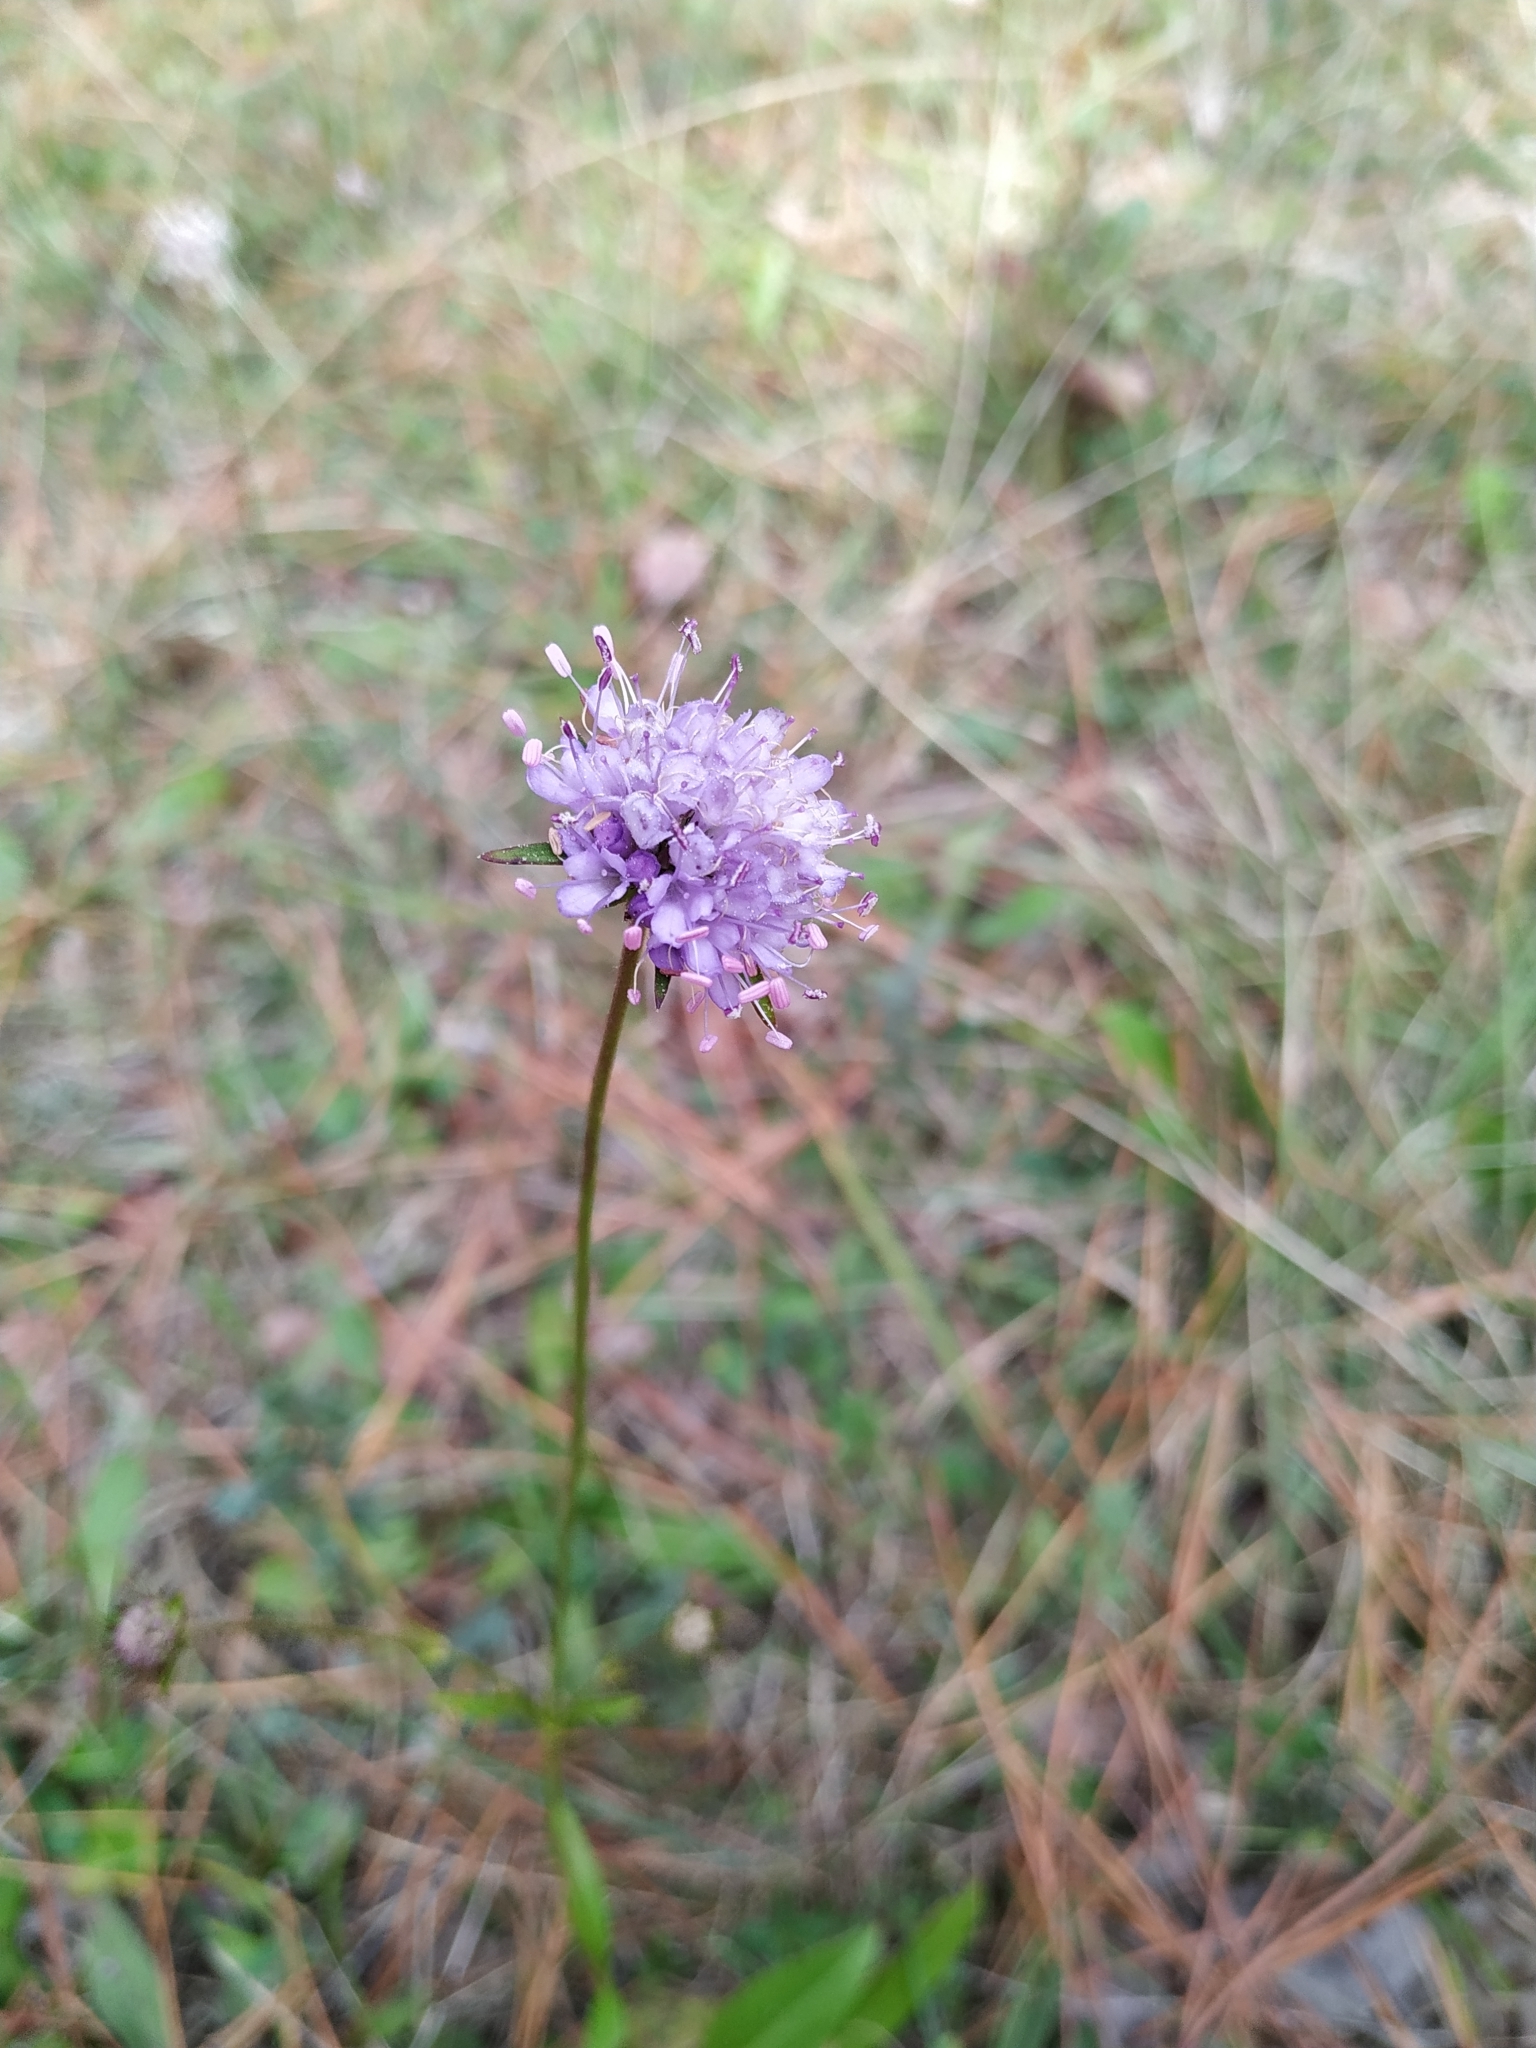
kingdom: Plantae
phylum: Tracheophyta
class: Magnoliopsida
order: Dipsacales
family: Caprifoliaceae
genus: Succisa
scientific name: Succisa pratensis
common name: Devil's-bit
